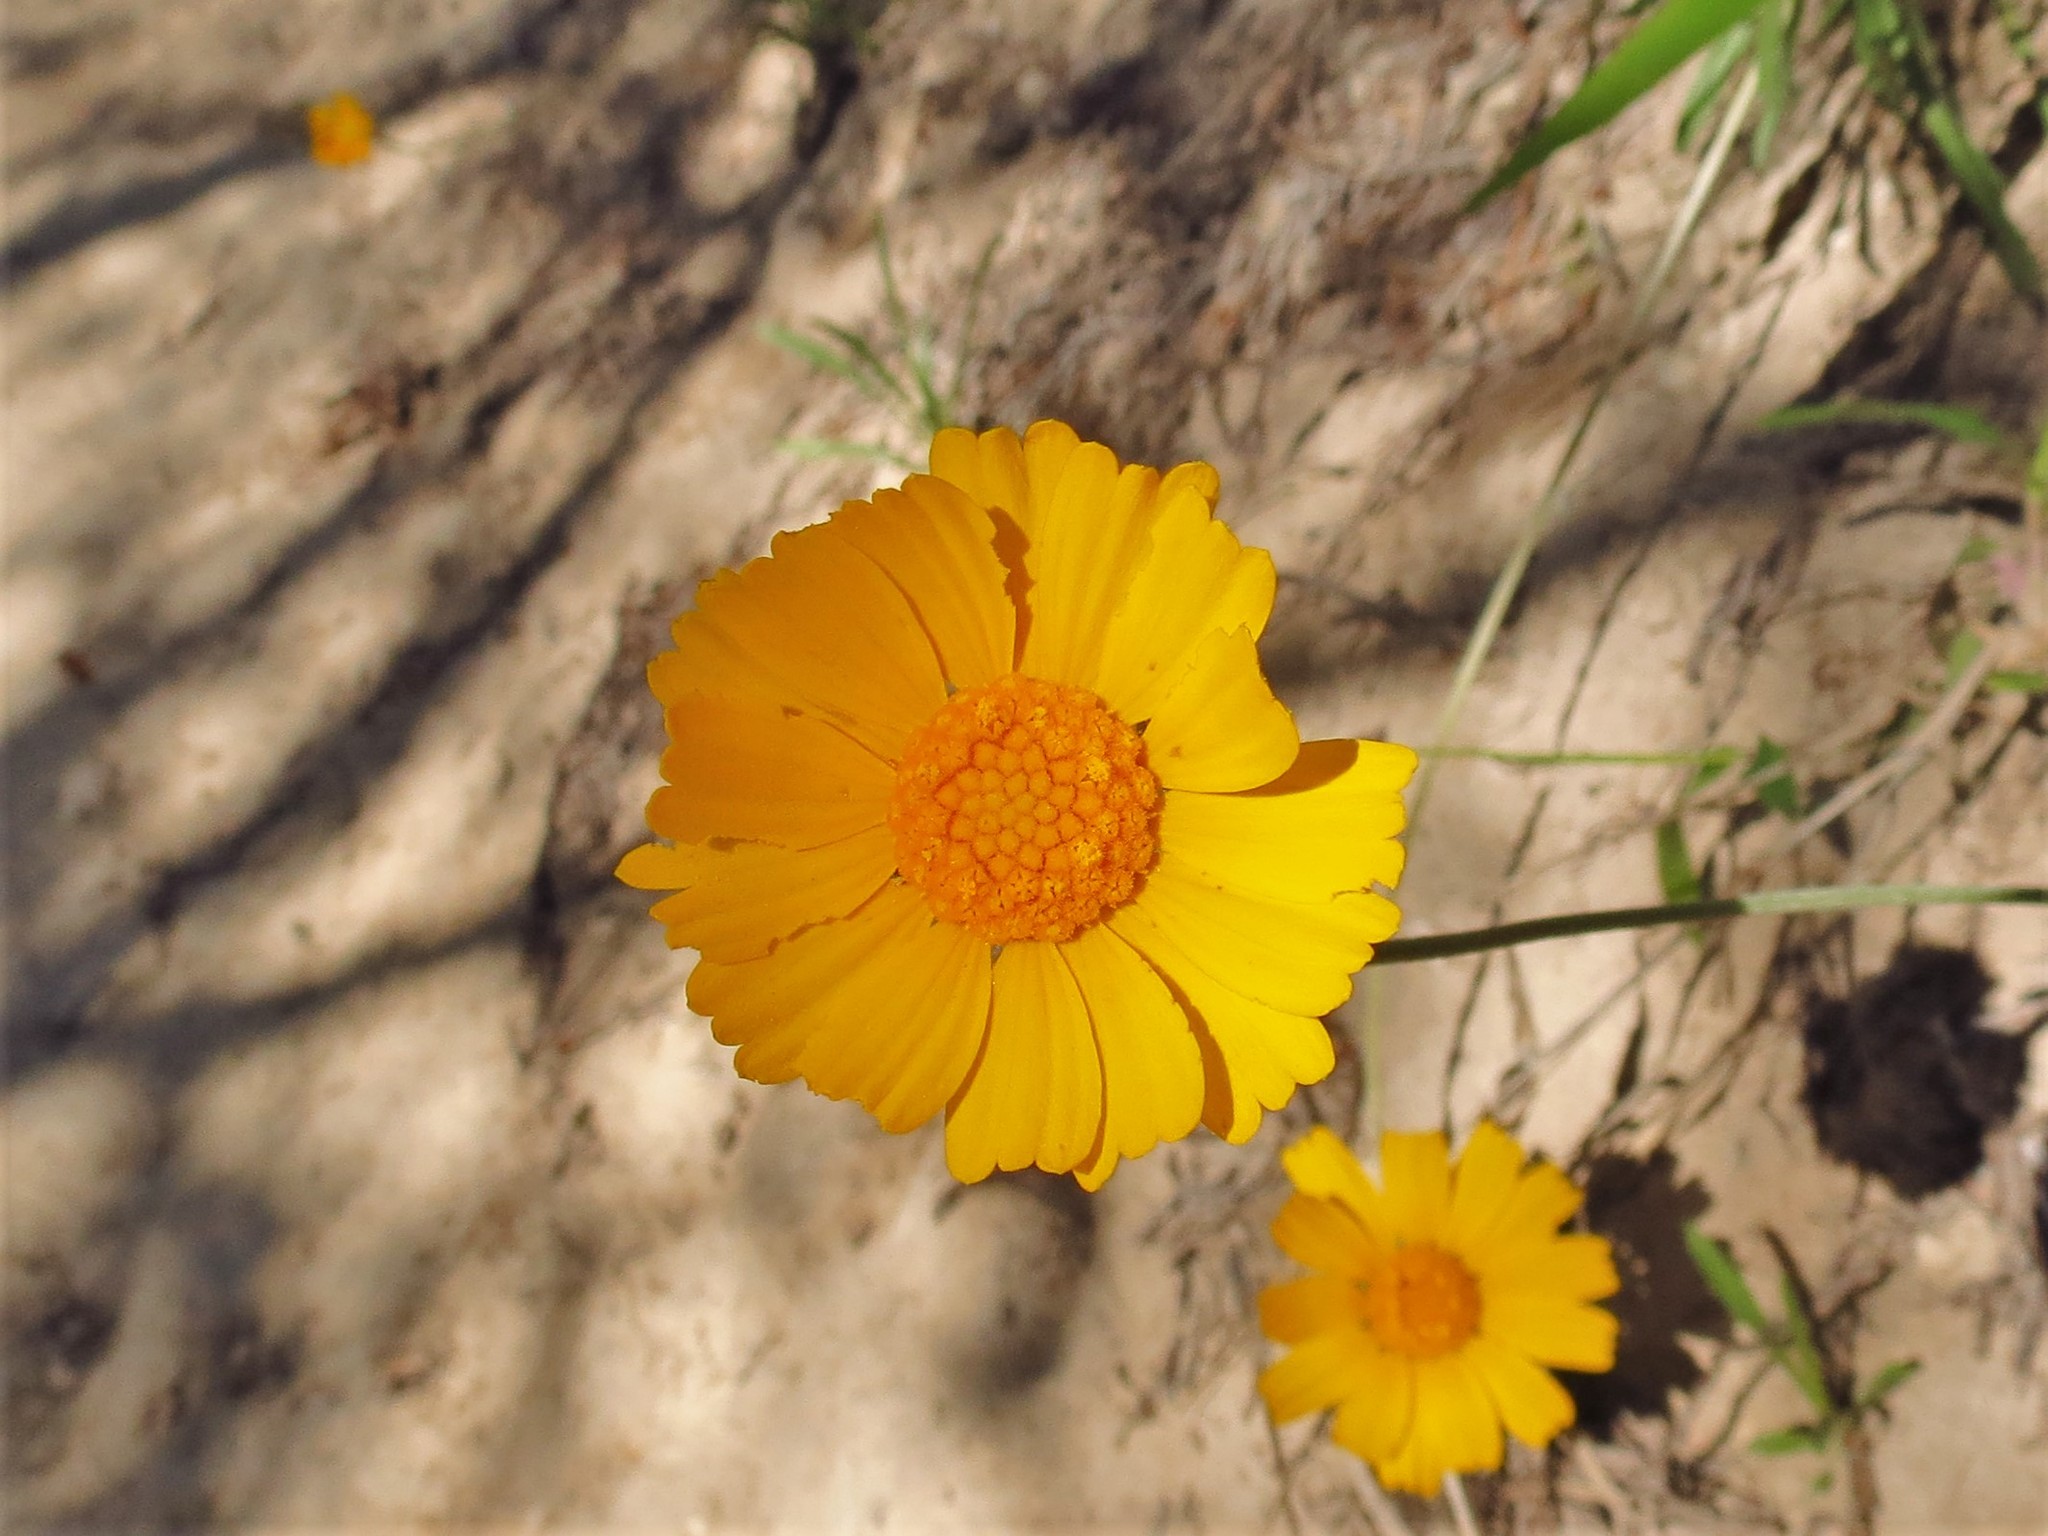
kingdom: Plantae
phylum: Tracheophyta
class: Magnoliopsida
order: Asterales
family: Asteraceae
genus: Tetraneuris
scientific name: Tetraneuris scaposa
